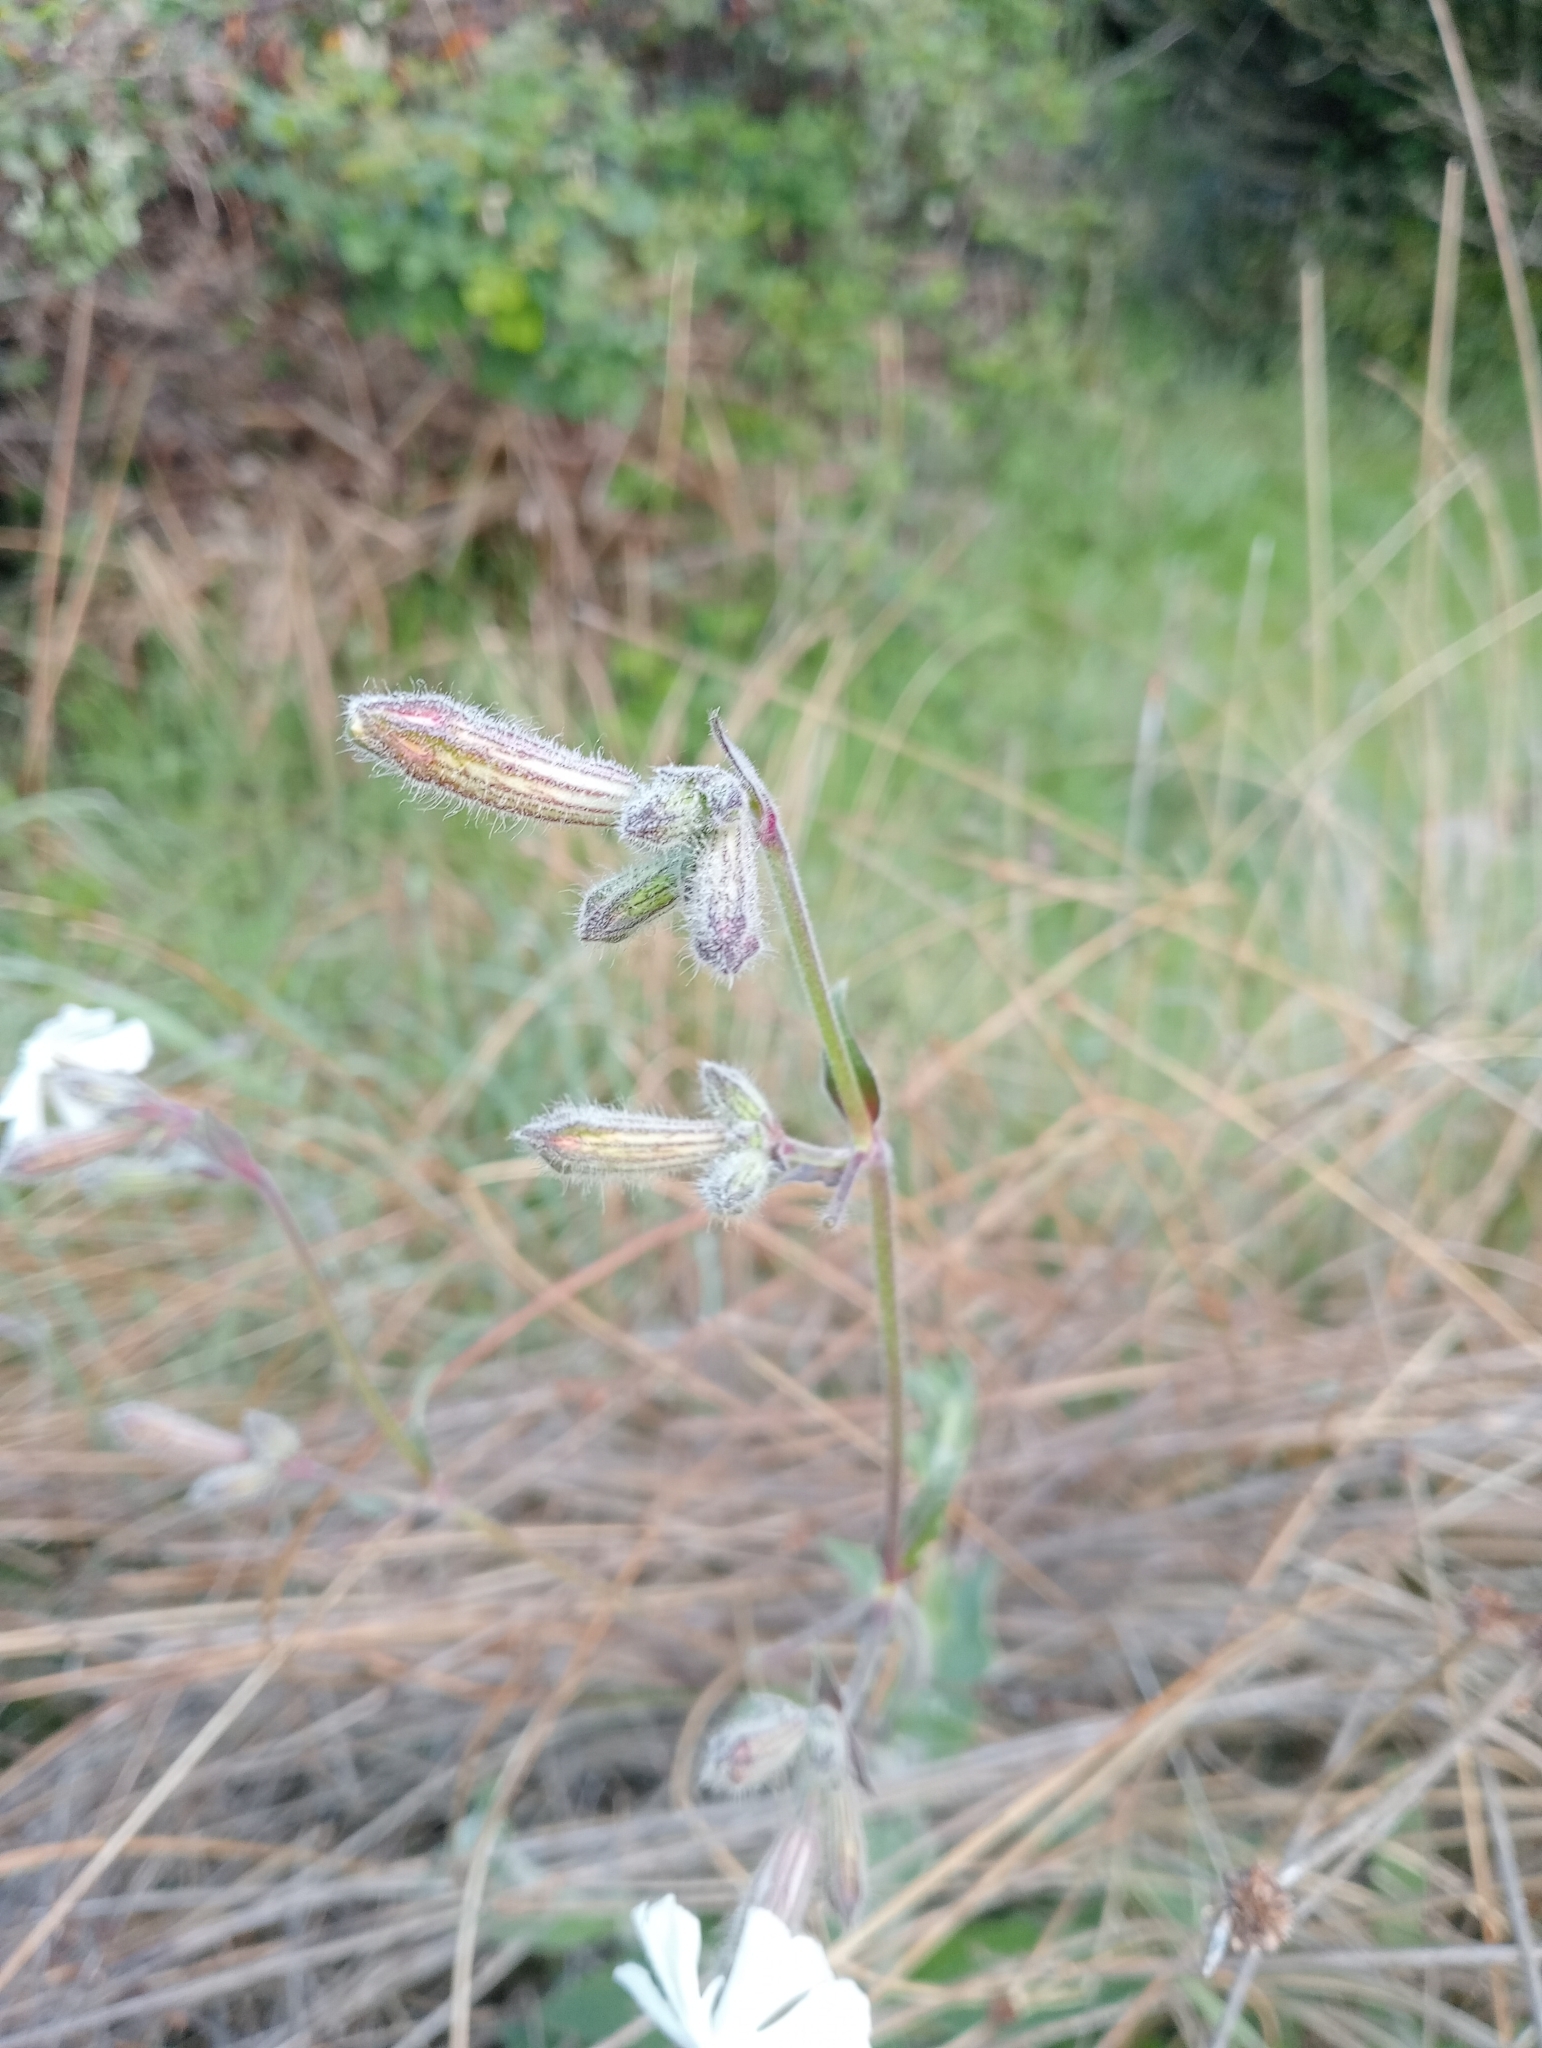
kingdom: Plantae
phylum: Tracheophyta
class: Magnoliopsida
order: Caryophyllales
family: Caryophyllaceae
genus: Silene
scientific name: Silene latifolia
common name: White campion
